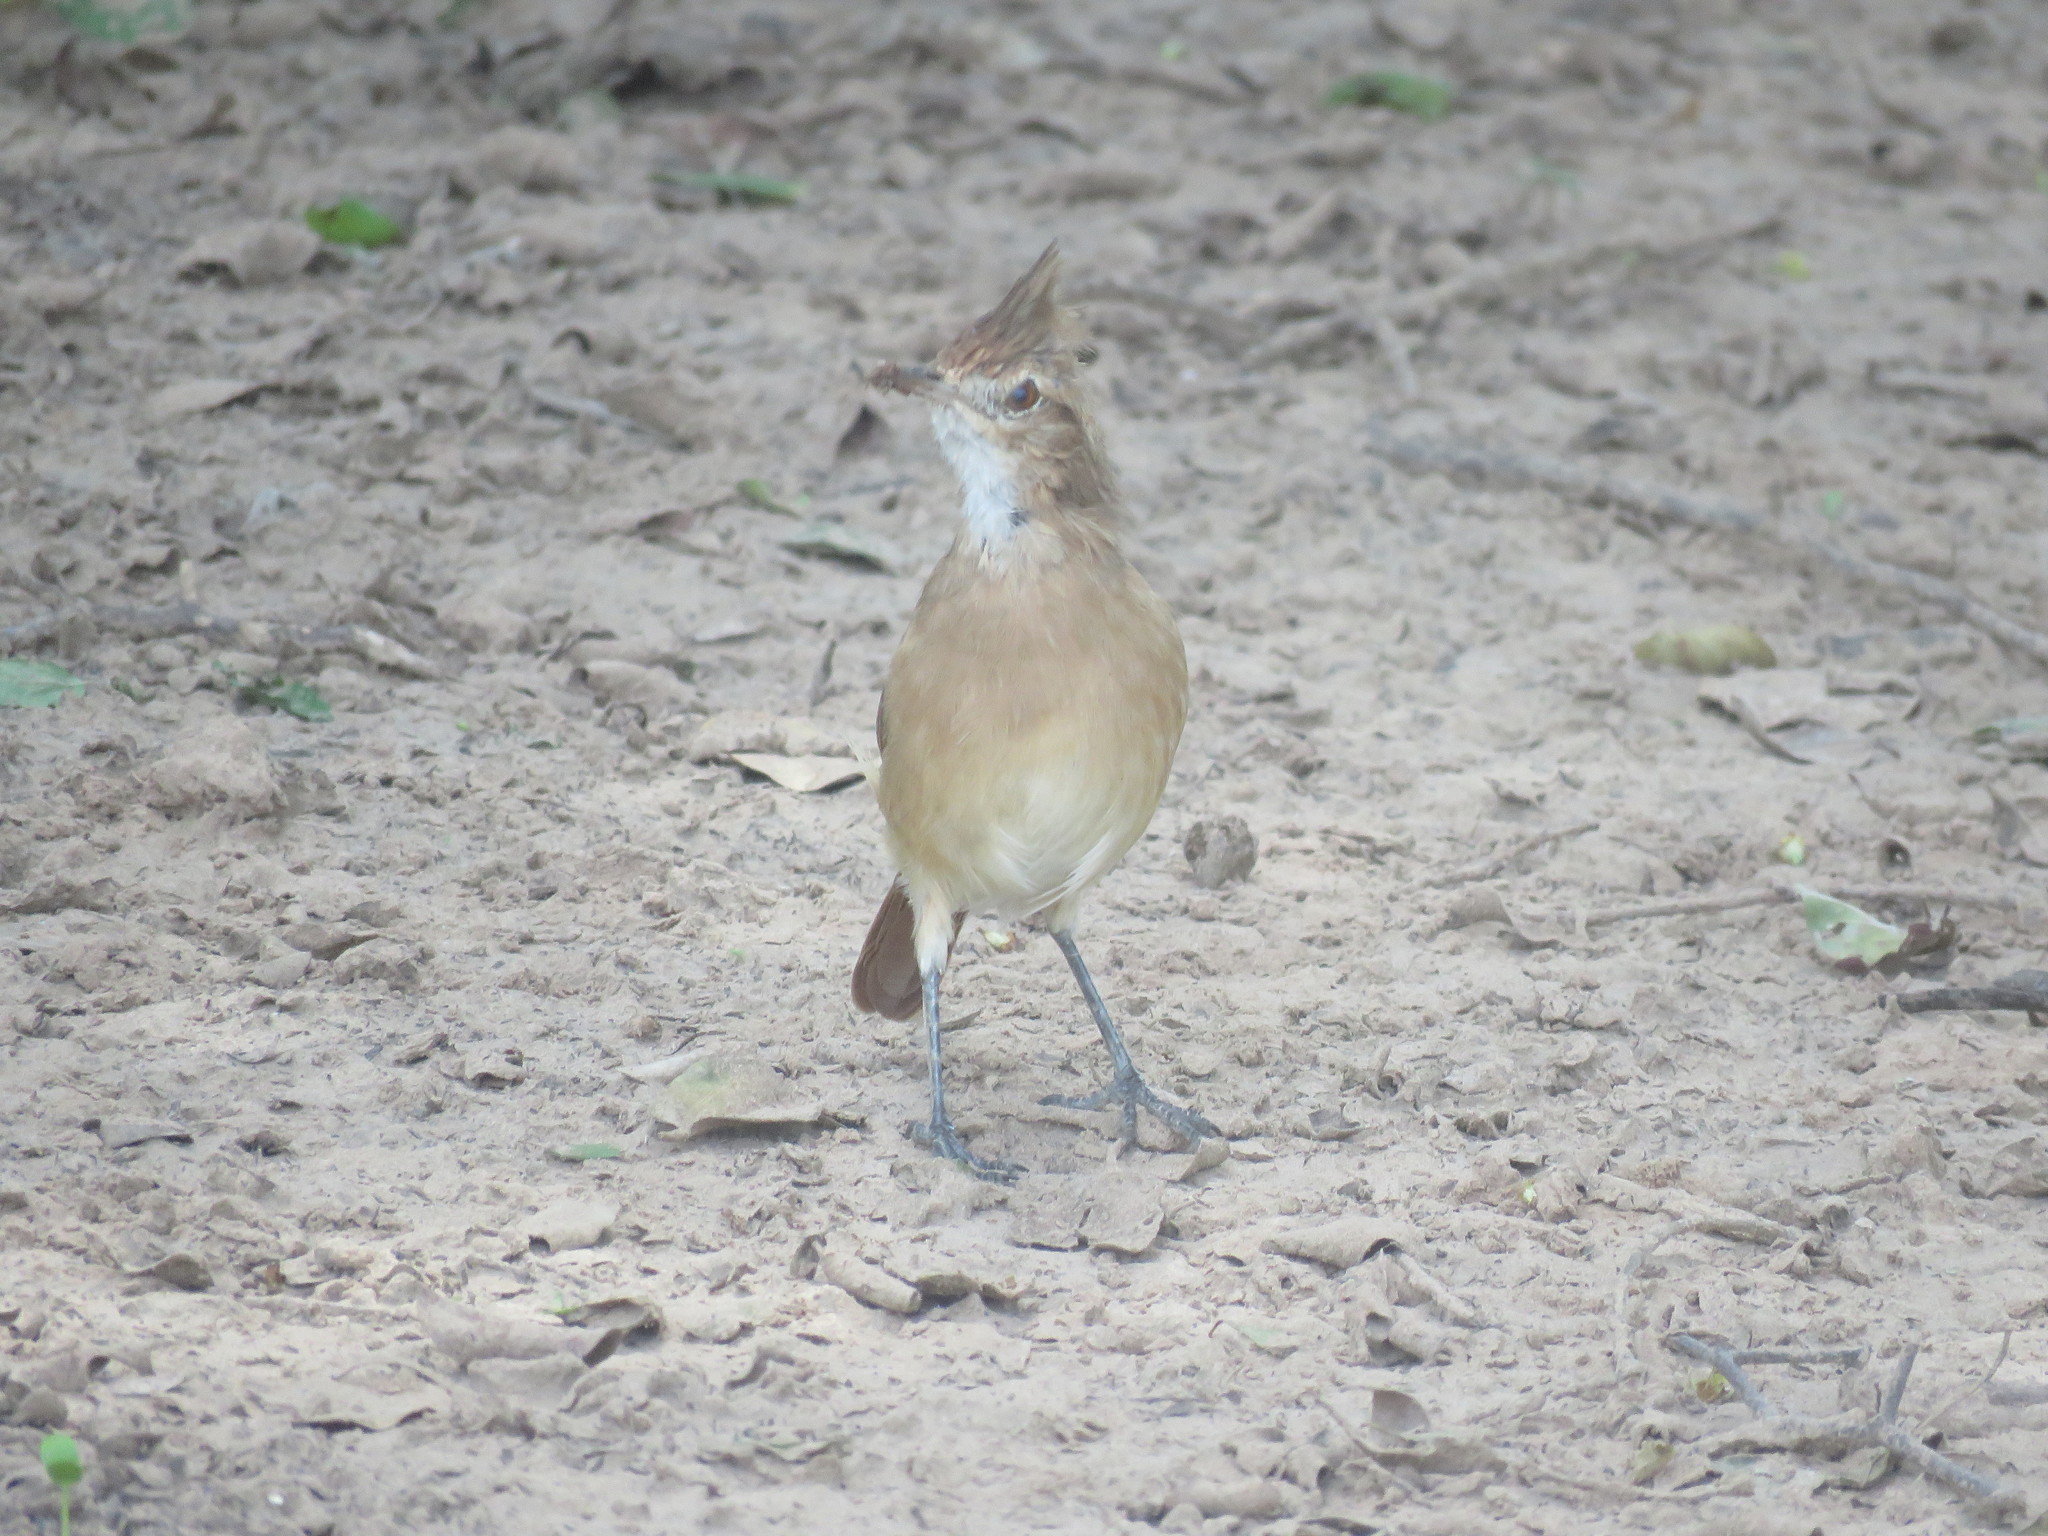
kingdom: Animalia
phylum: Chordata
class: Aves
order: Passeriformes
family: Furnariidae
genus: Furnarius
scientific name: Furnarius cristatus
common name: Crested hornero
